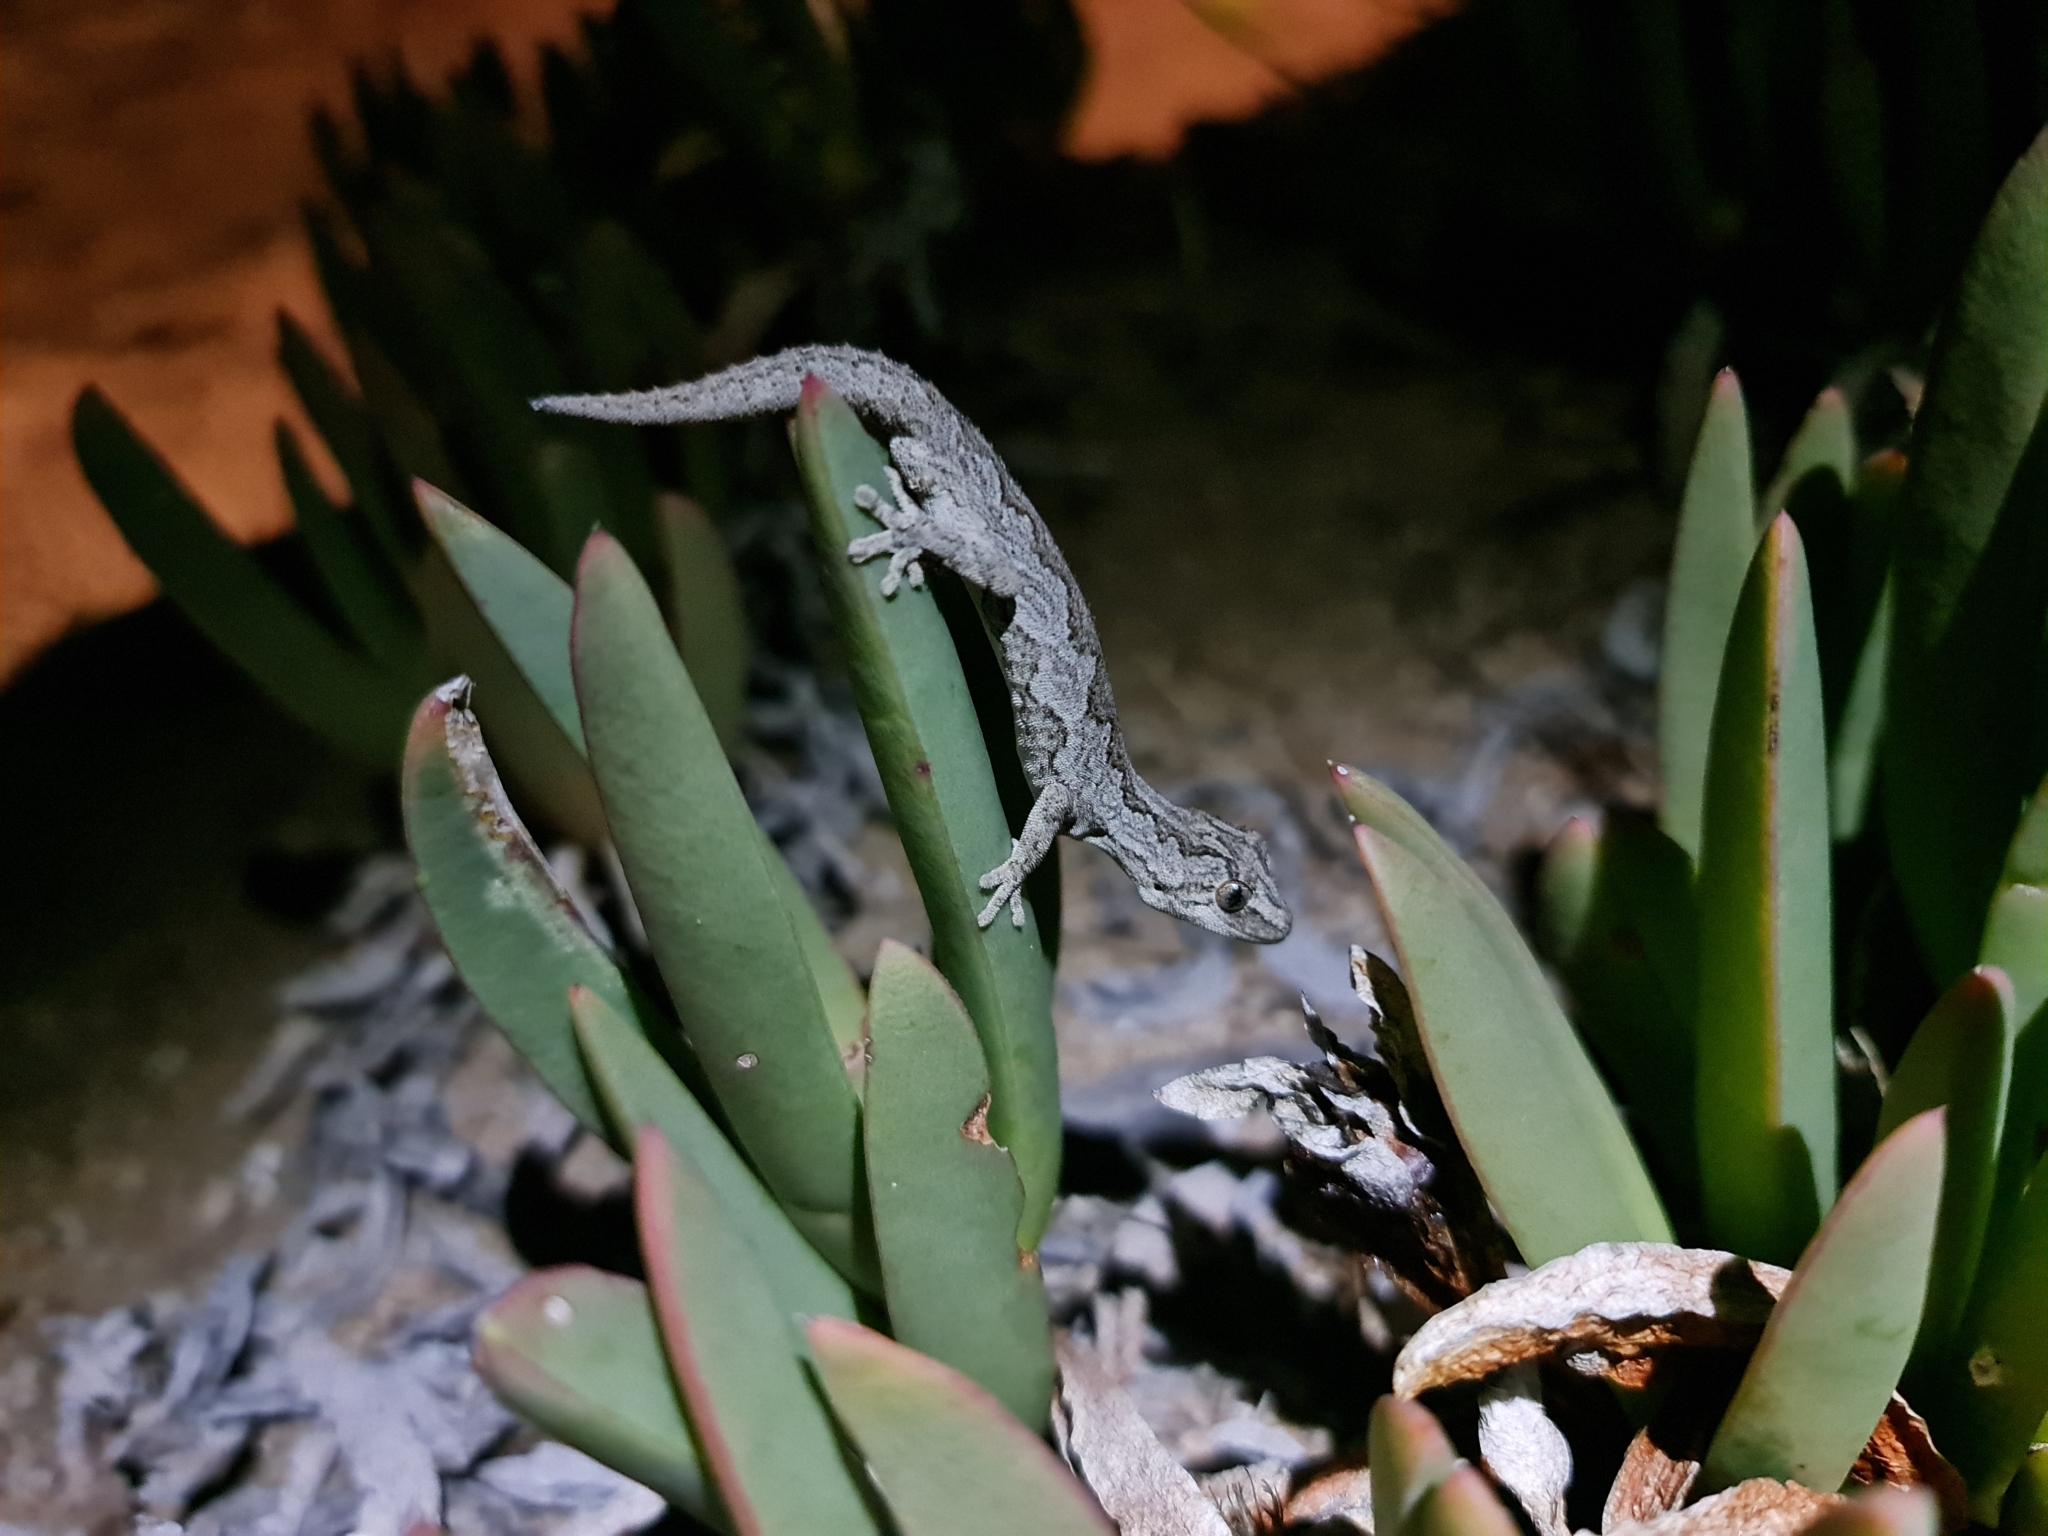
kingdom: Animalia
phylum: Chordata
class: Squamata
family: Diplodactylidae
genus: Strophurus
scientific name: Strophurus intermedius
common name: Eastern spiny-tailed gecko
